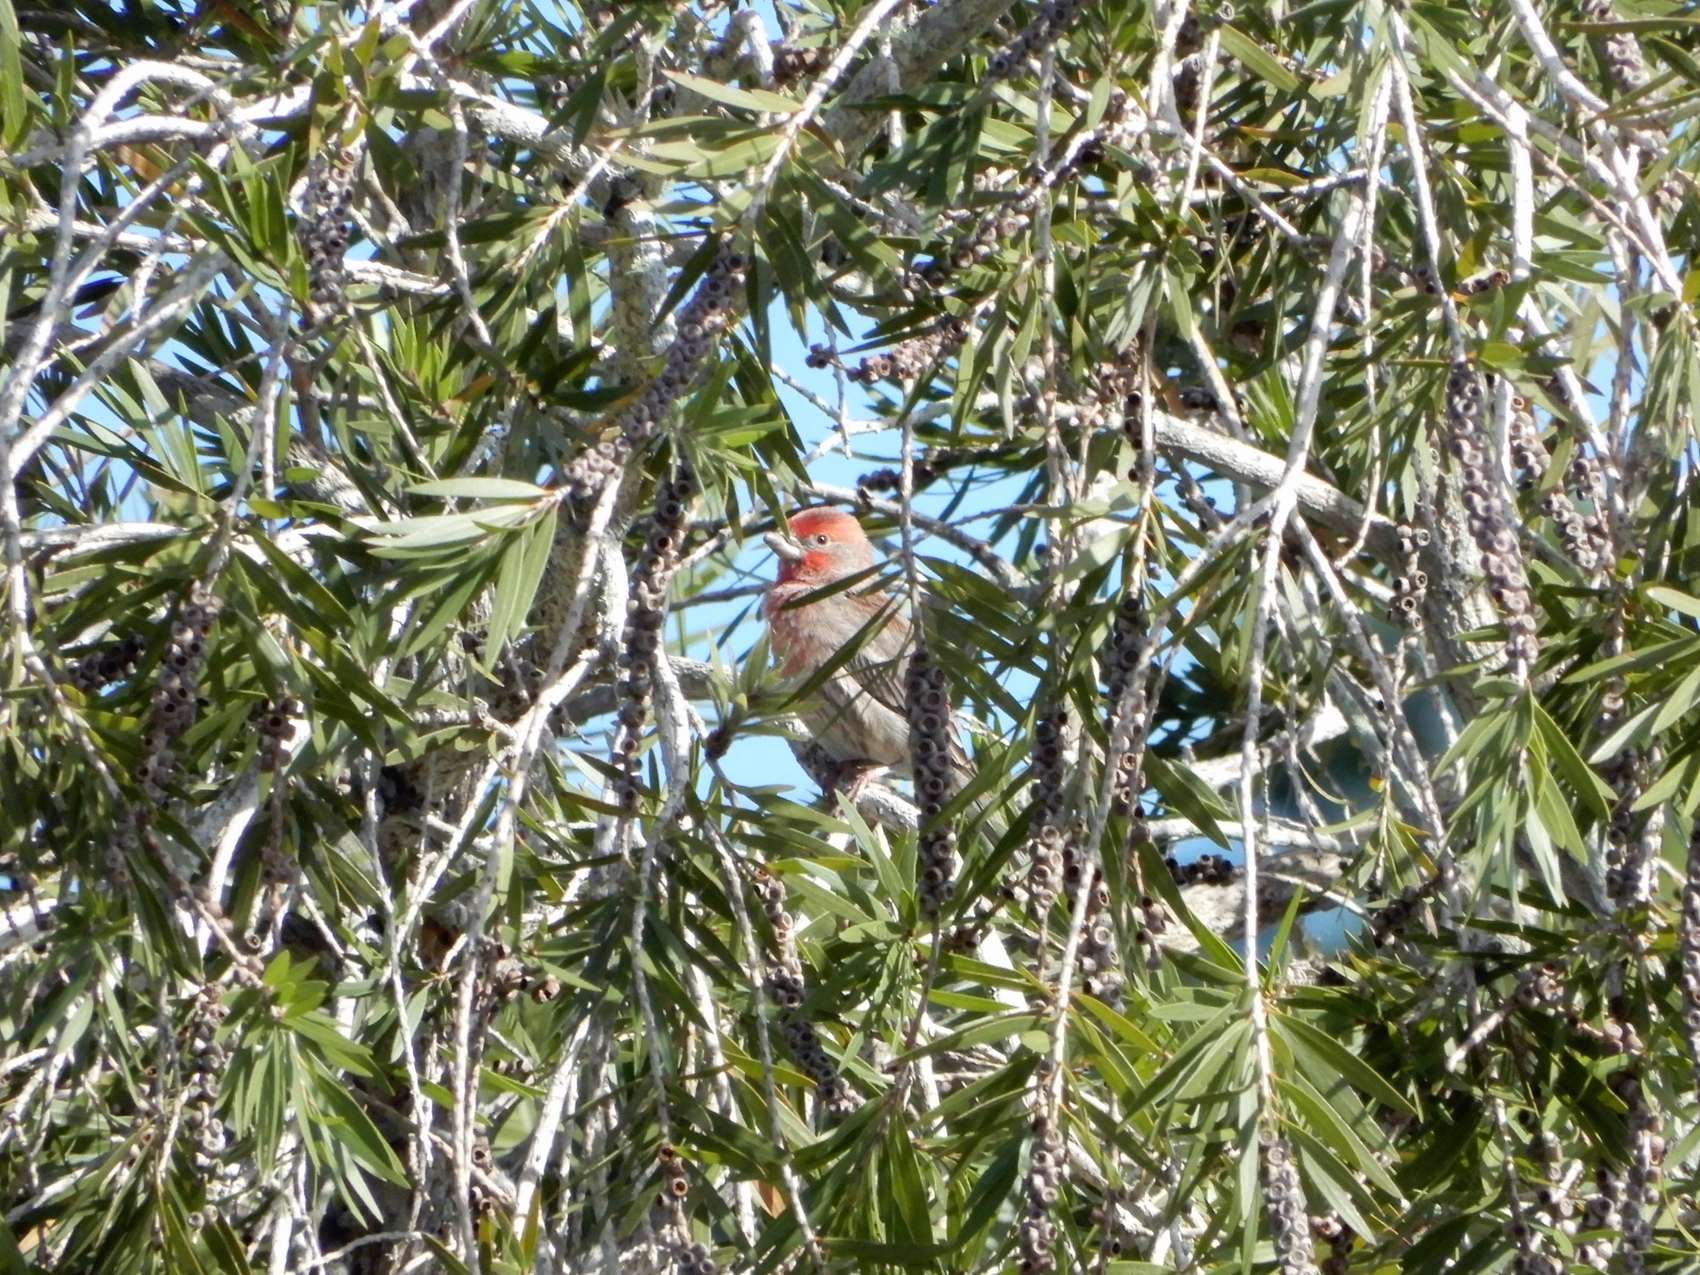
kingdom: Animalia
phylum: Chordata
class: Aves
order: Passeriformes
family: Fringillidae
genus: Haemorhous
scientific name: Haemorhous mexicanus
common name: House finch
